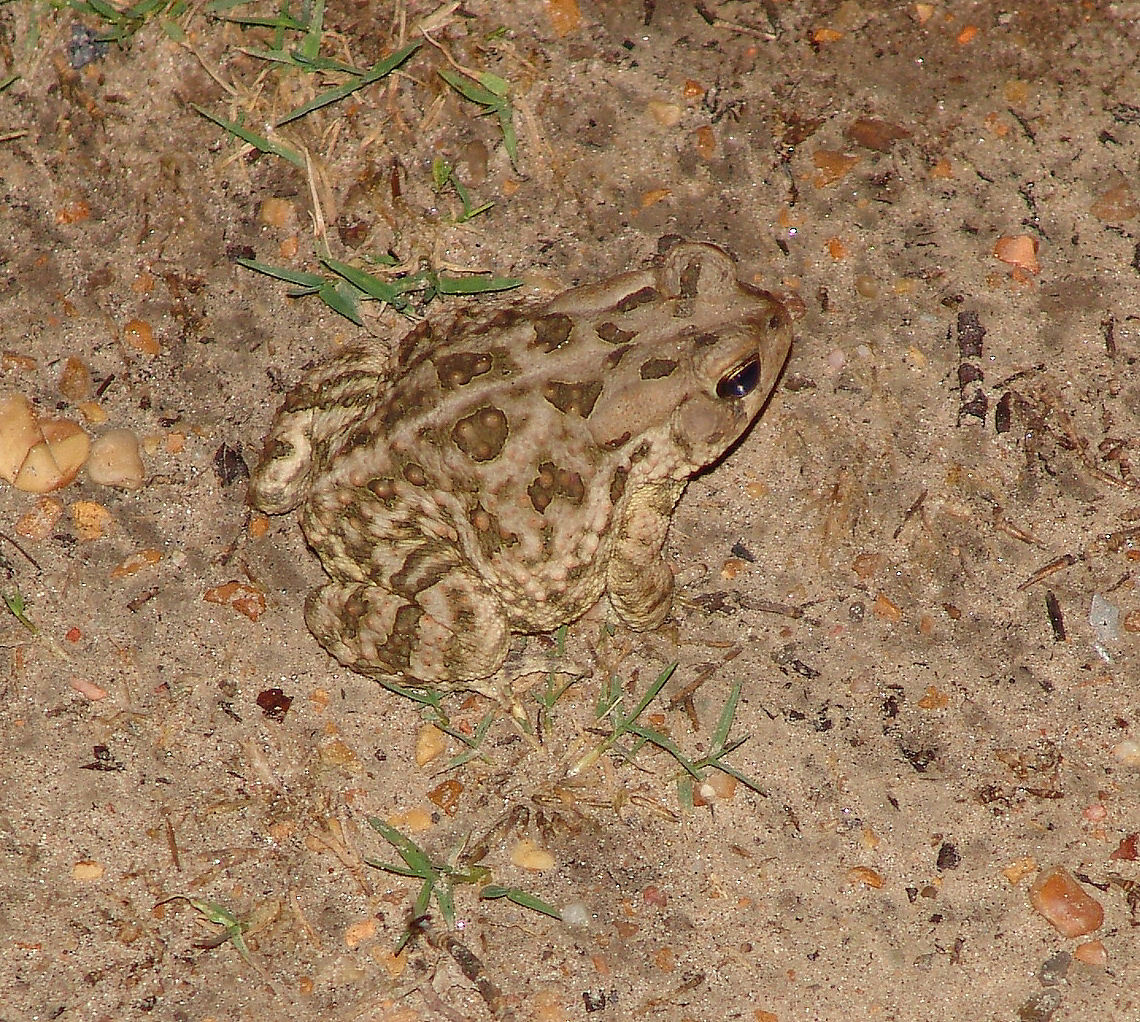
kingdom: Animalia
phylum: Chordata
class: Amphibia
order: Anura
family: Bufonidae
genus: Anaxyrus
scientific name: Anaxyrus fowleri
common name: Fowler's toad
